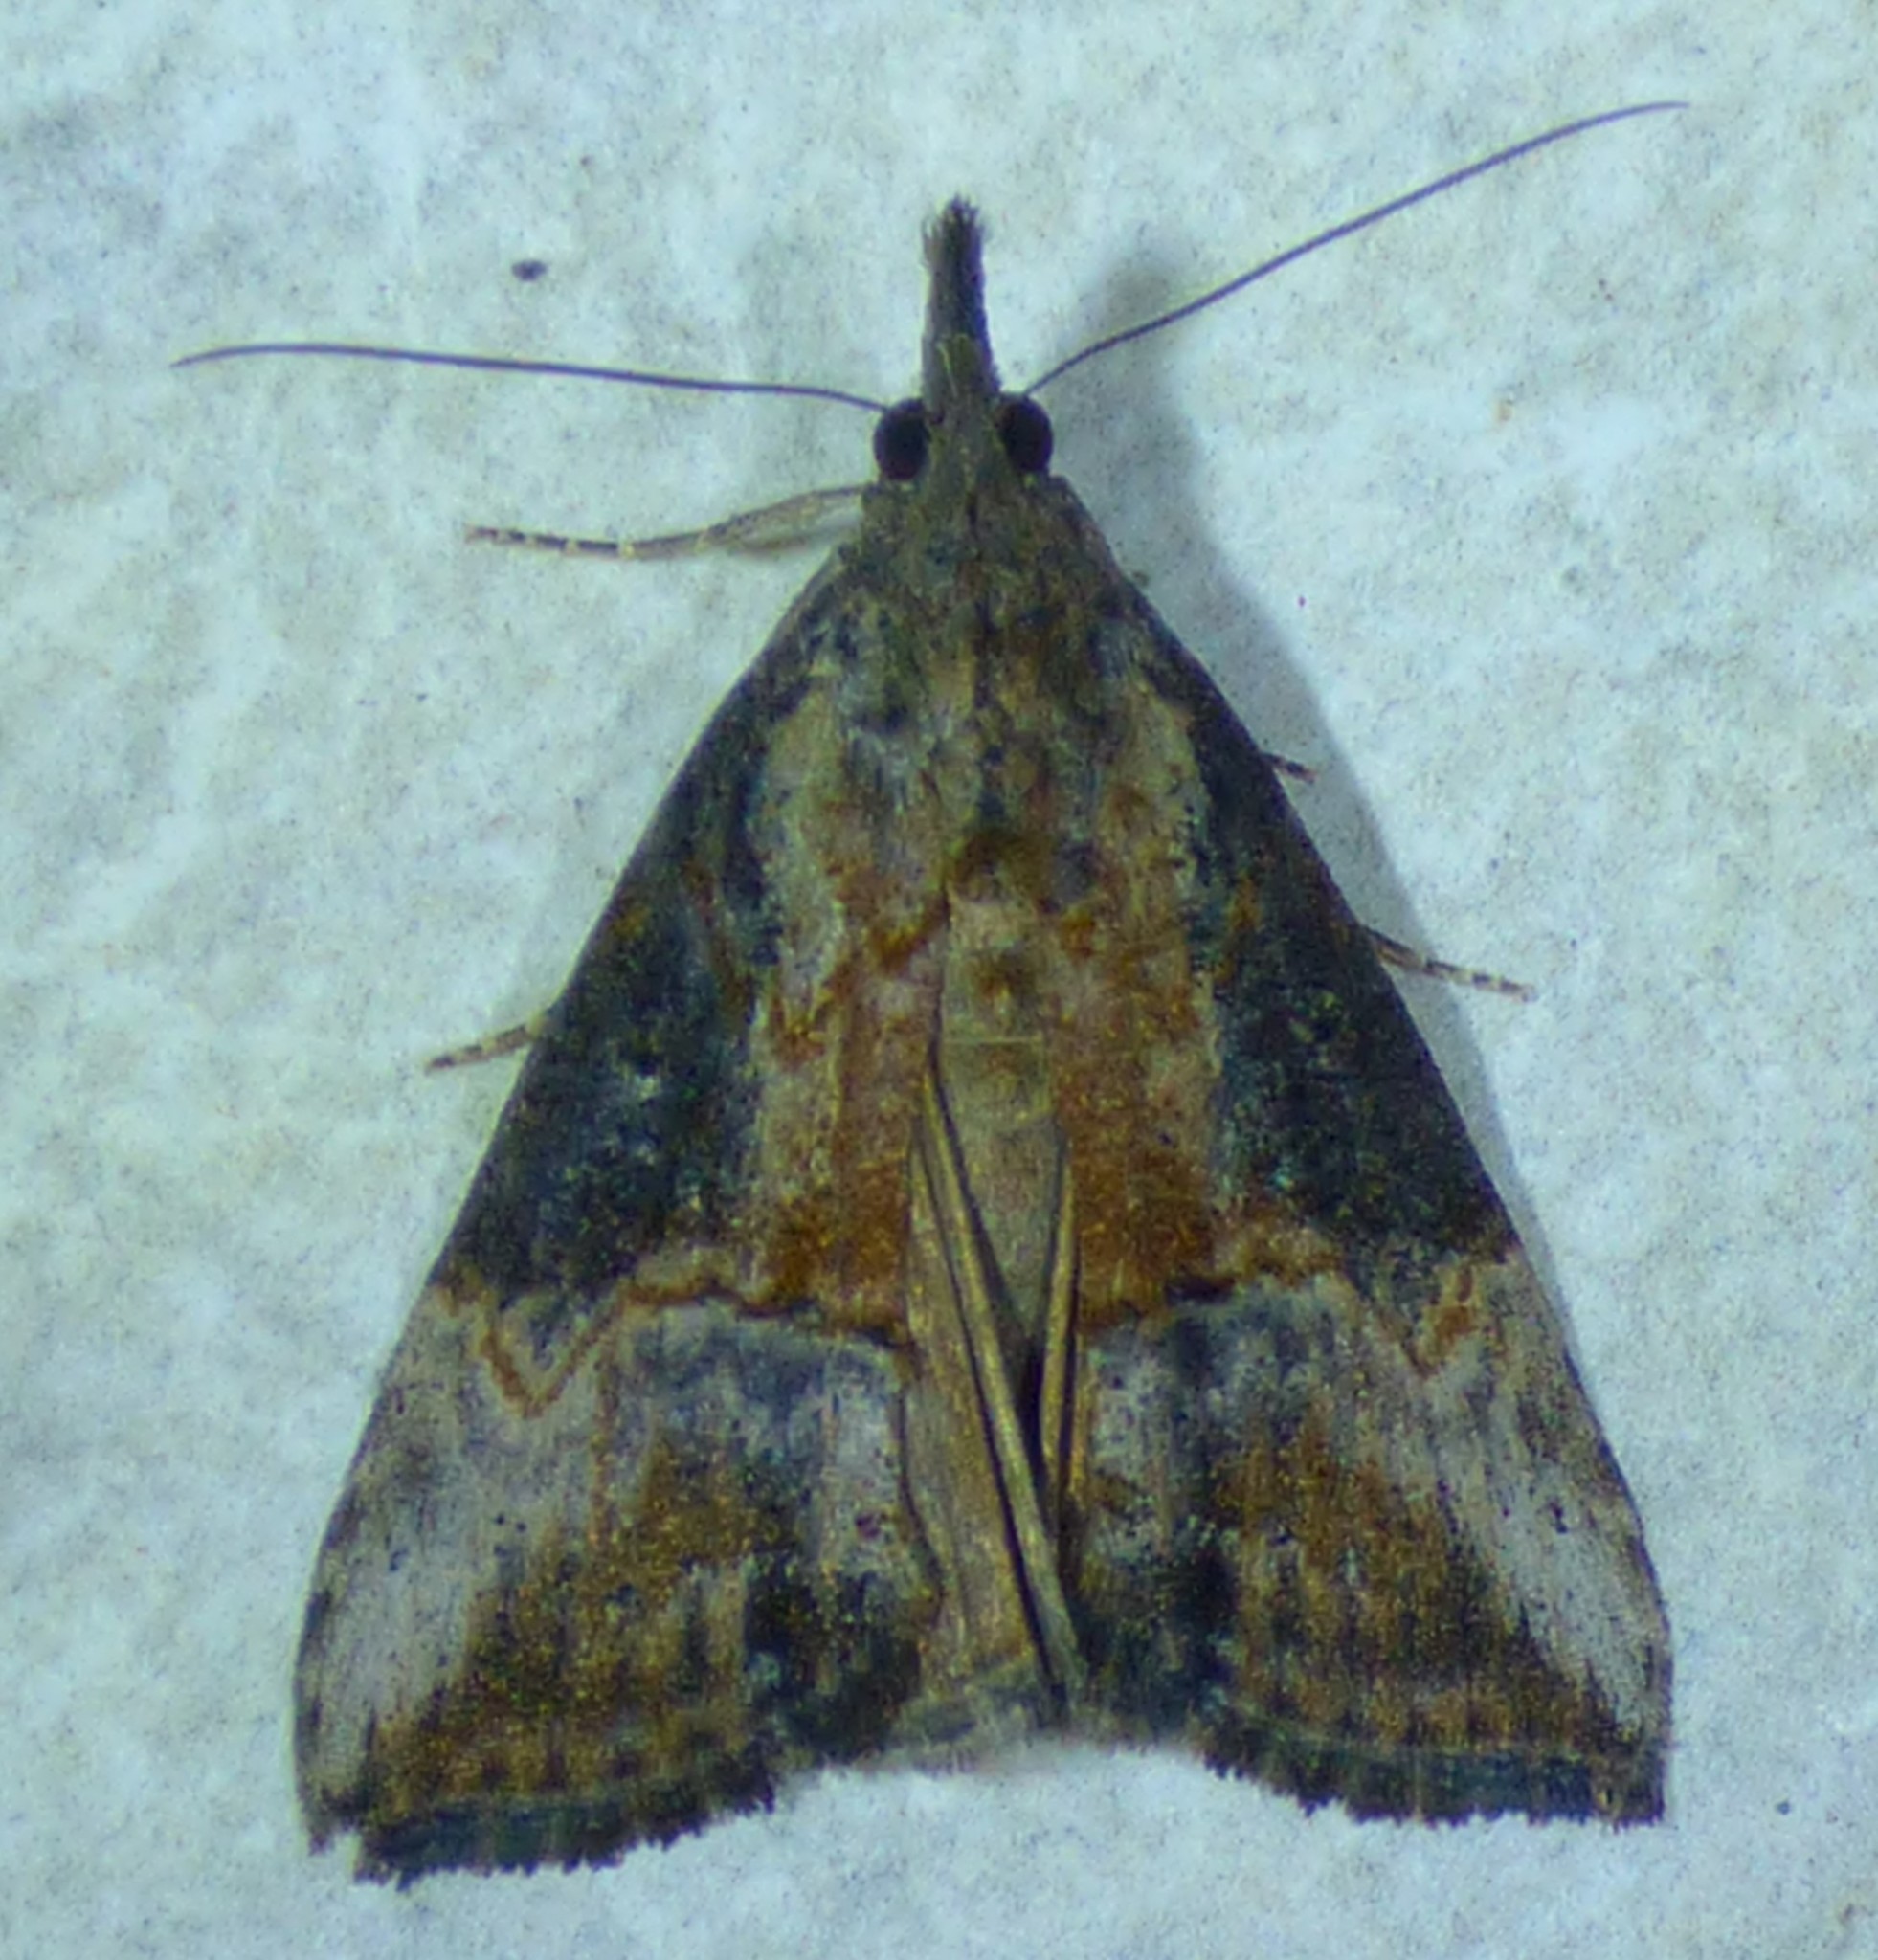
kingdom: Animalia
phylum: Arthropoda
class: Insecta
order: Lepidoptera
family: Erebidae
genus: Hypena
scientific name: Hypena scabra
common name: Green cloverworm
